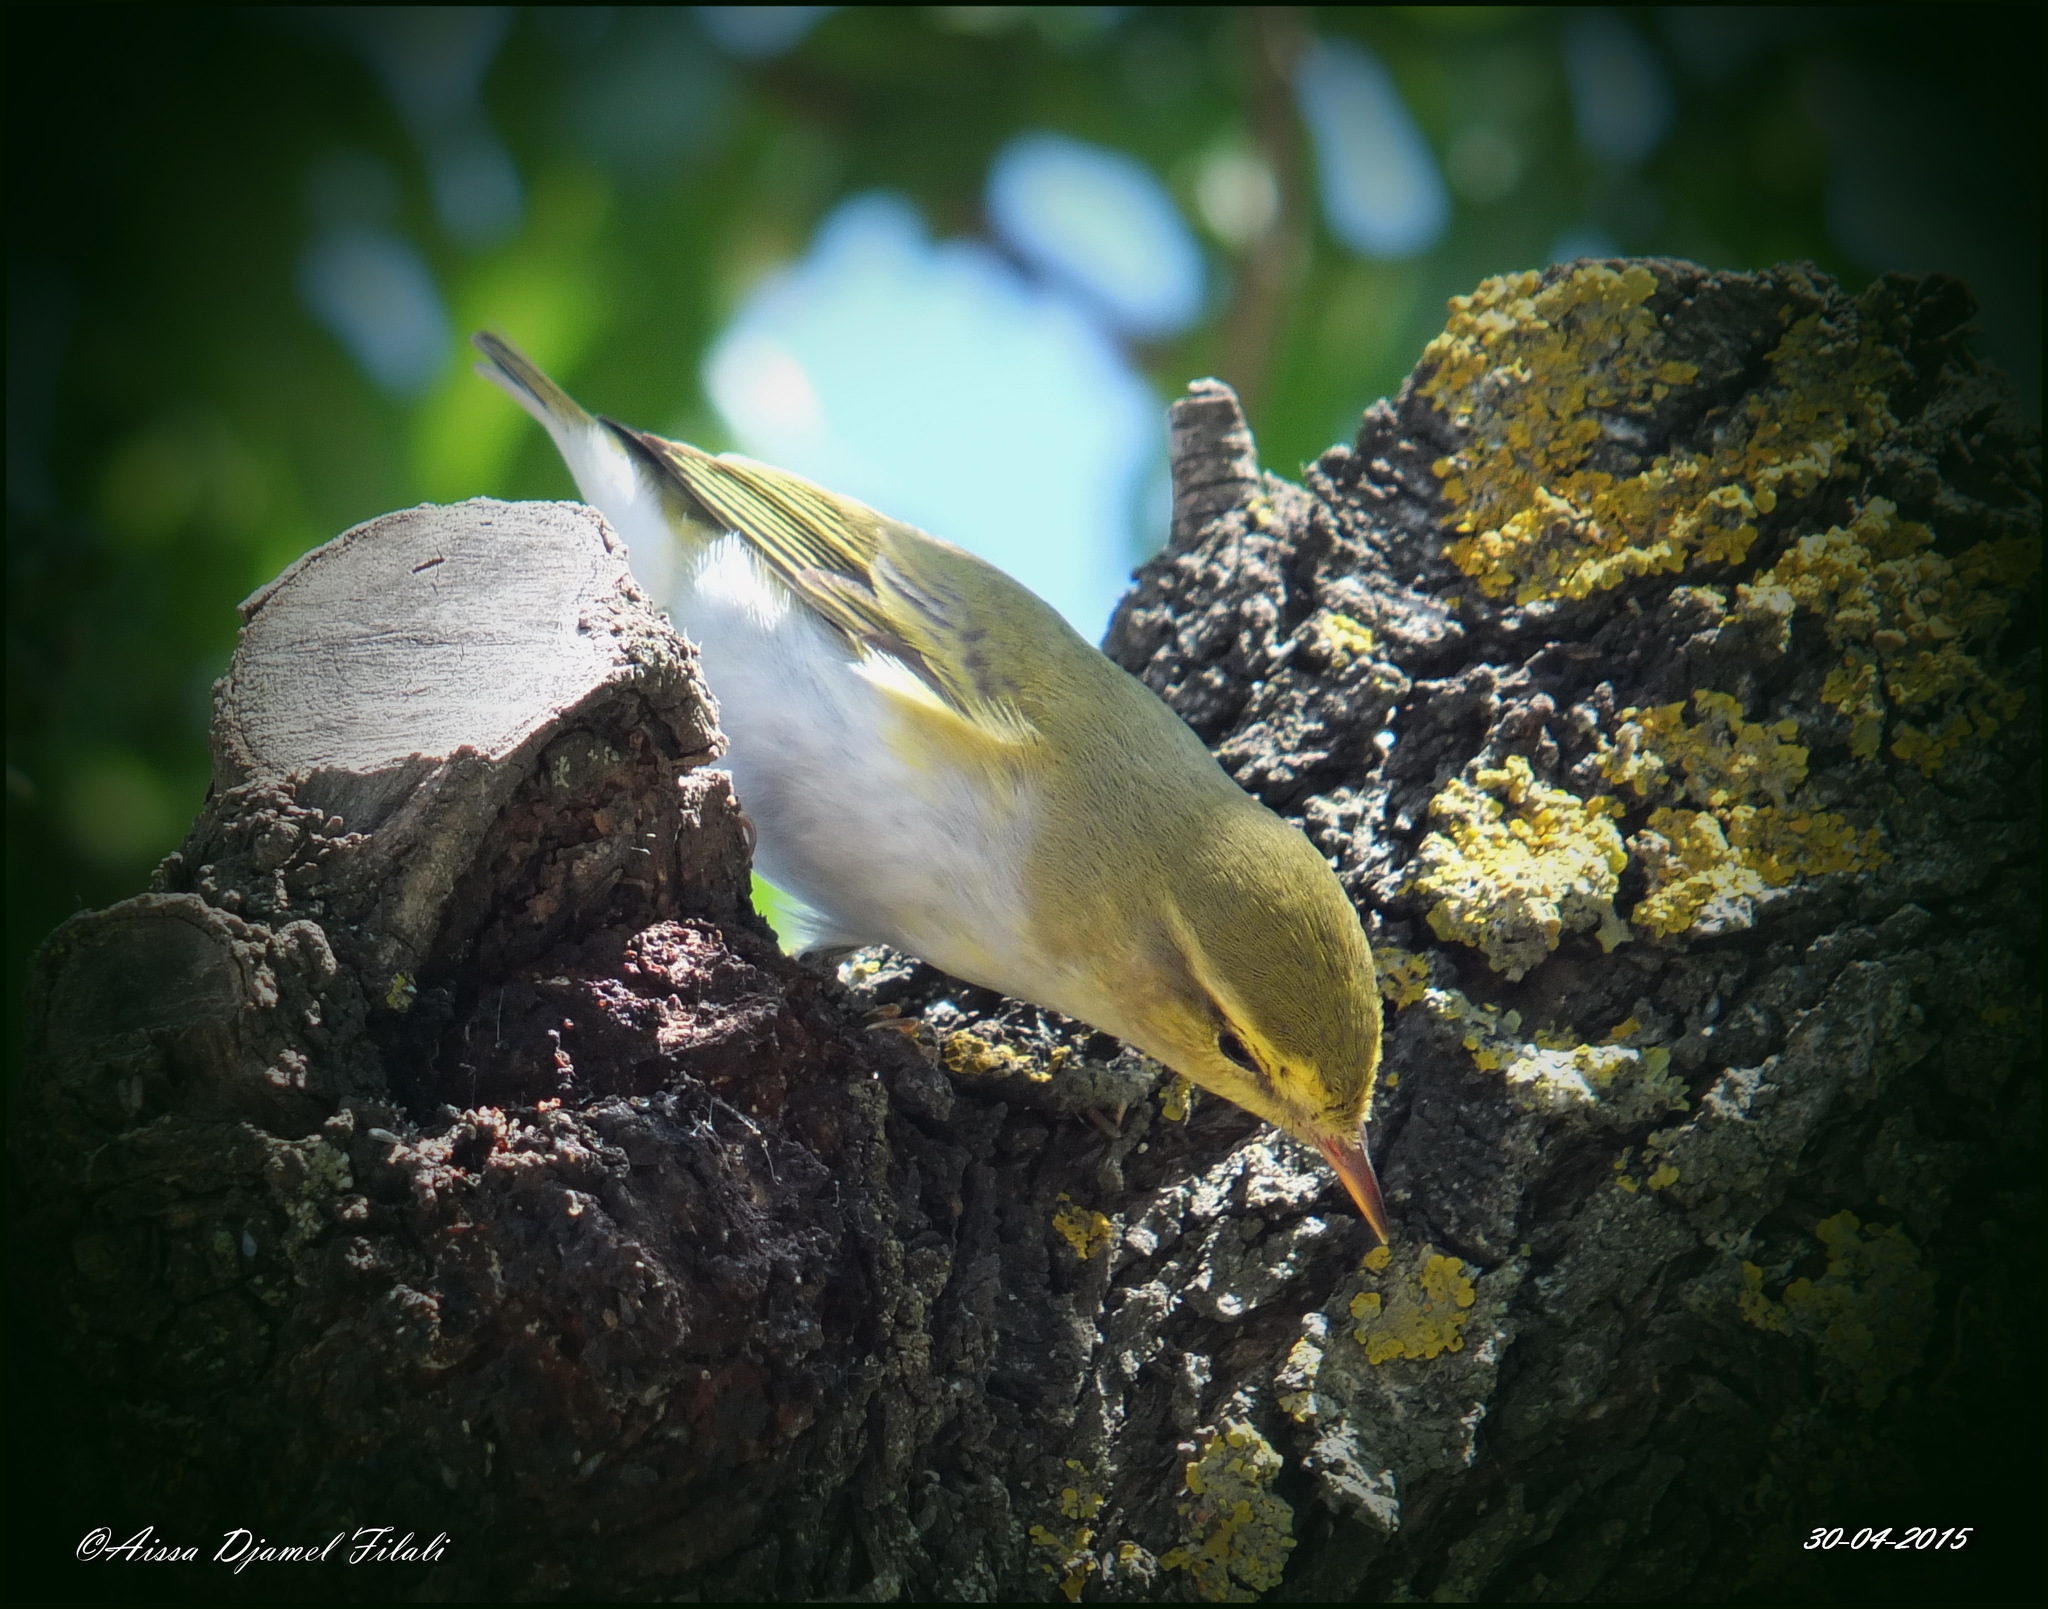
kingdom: Animalia
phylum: Chordata
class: Aves
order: Passeriformes
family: Phylloscopidae
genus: Phylloscopus
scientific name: Phylloscopus sibillatrix
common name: Wood warbler
